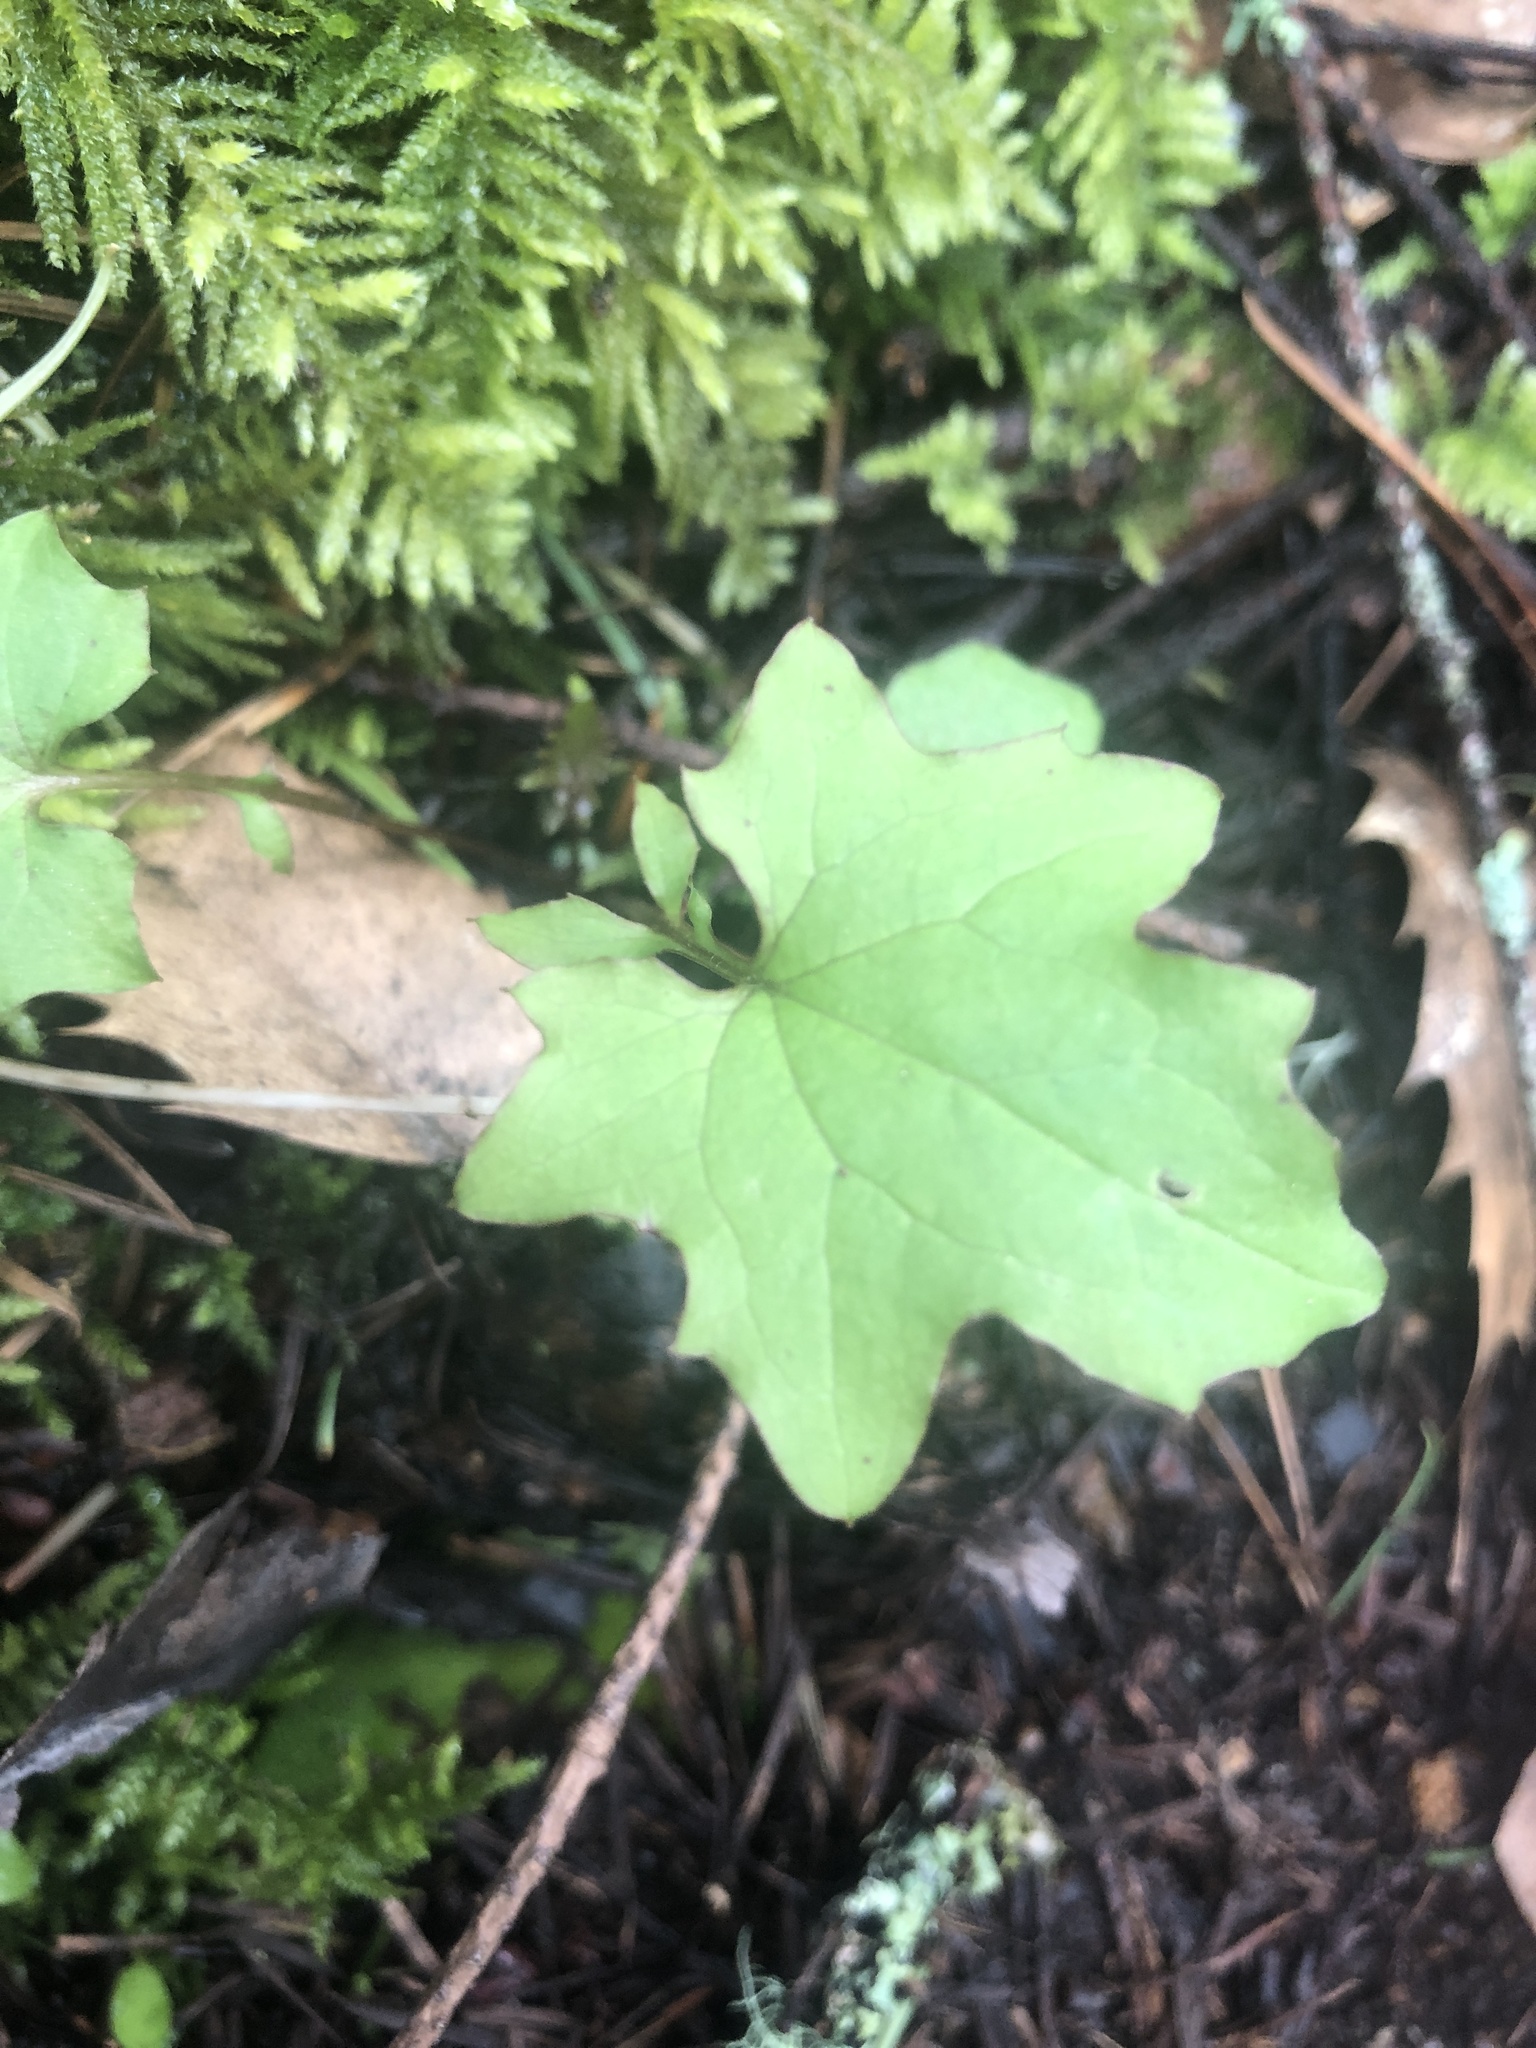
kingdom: Plantae
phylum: Tracheophyta
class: Magnoliopsida
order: Asterales
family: Asteraceae
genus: Mycelis
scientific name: Mycelis muralis
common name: Wall lettuce
